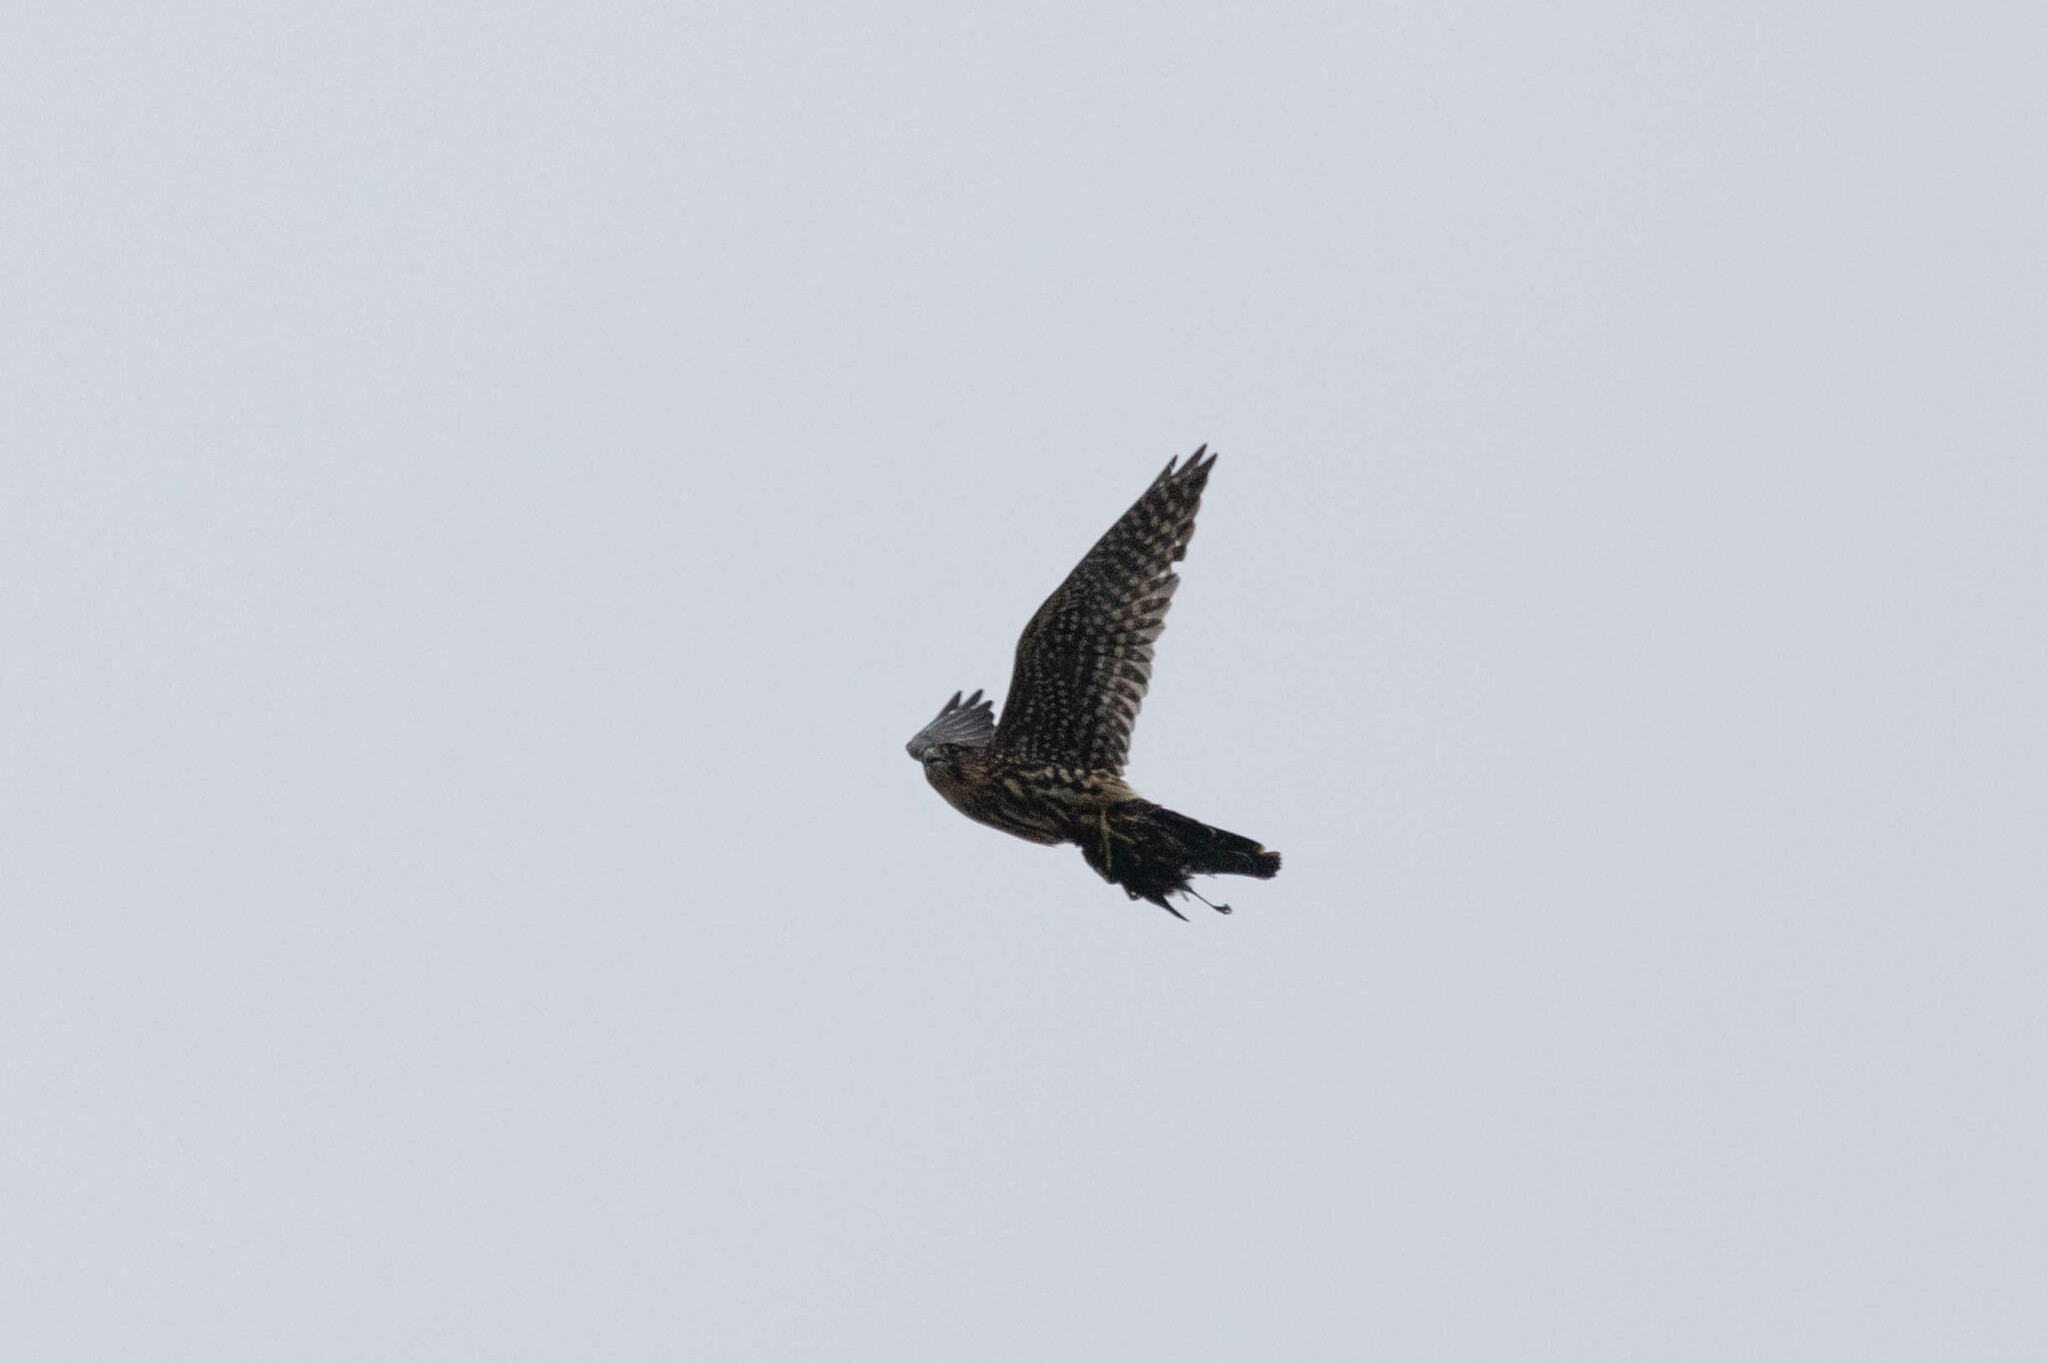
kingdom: Animalia
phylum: Chordata
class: Aves
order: Falconiformes
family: Falconidae
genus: Falco
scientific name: Falco columbarius
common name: Merlin
